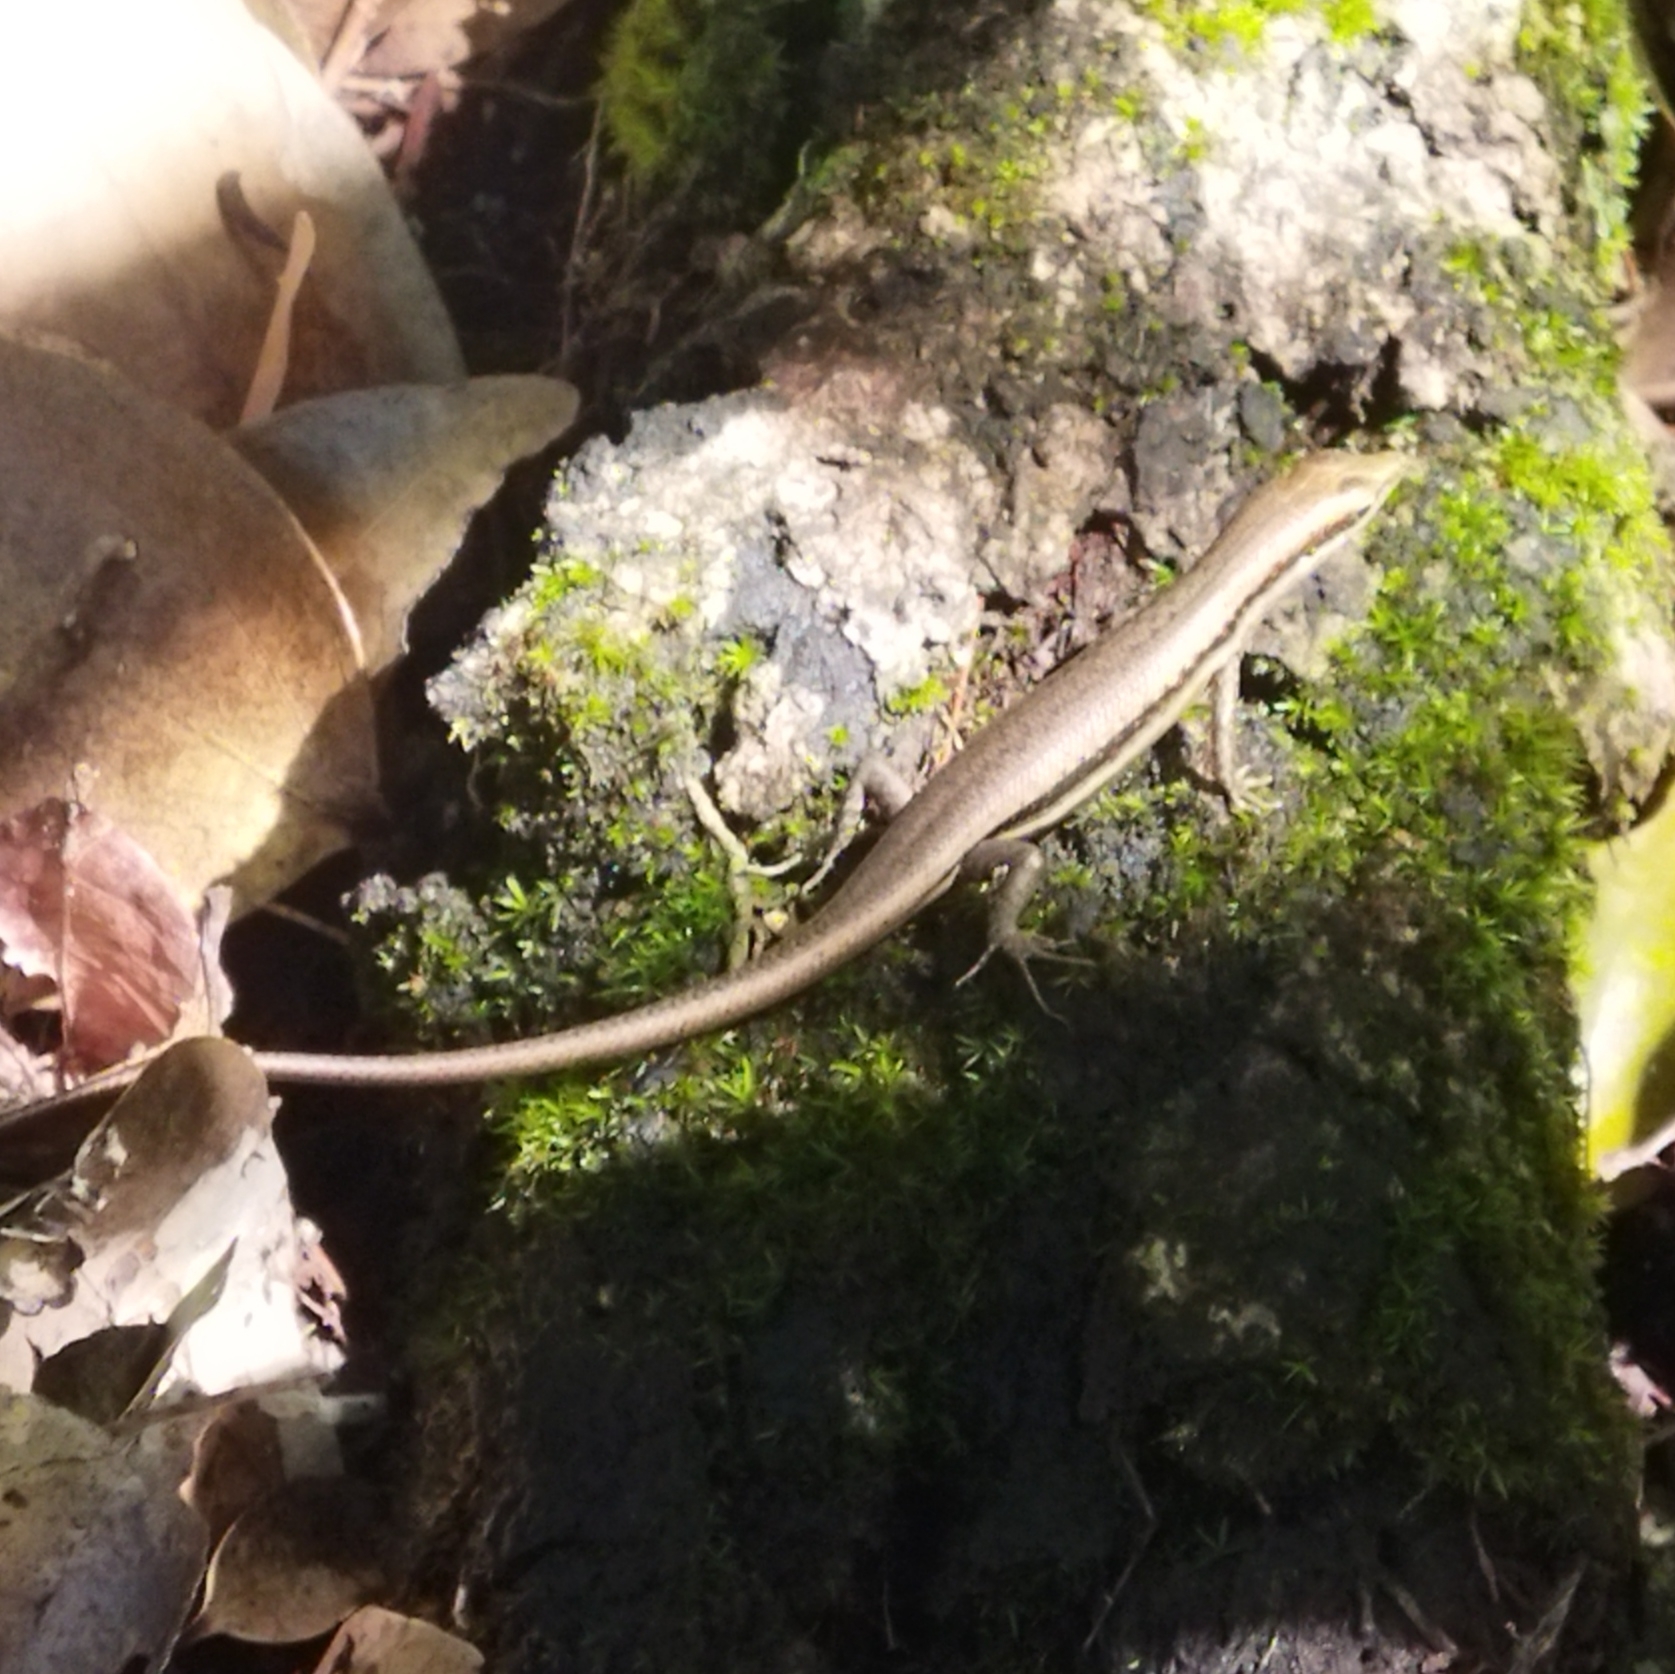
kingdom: Animalia
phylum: Chordata
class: Squamata
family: Scincidae
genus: Trachylepis
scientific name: Trachylepis sechellensis
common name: Seychelles skink
